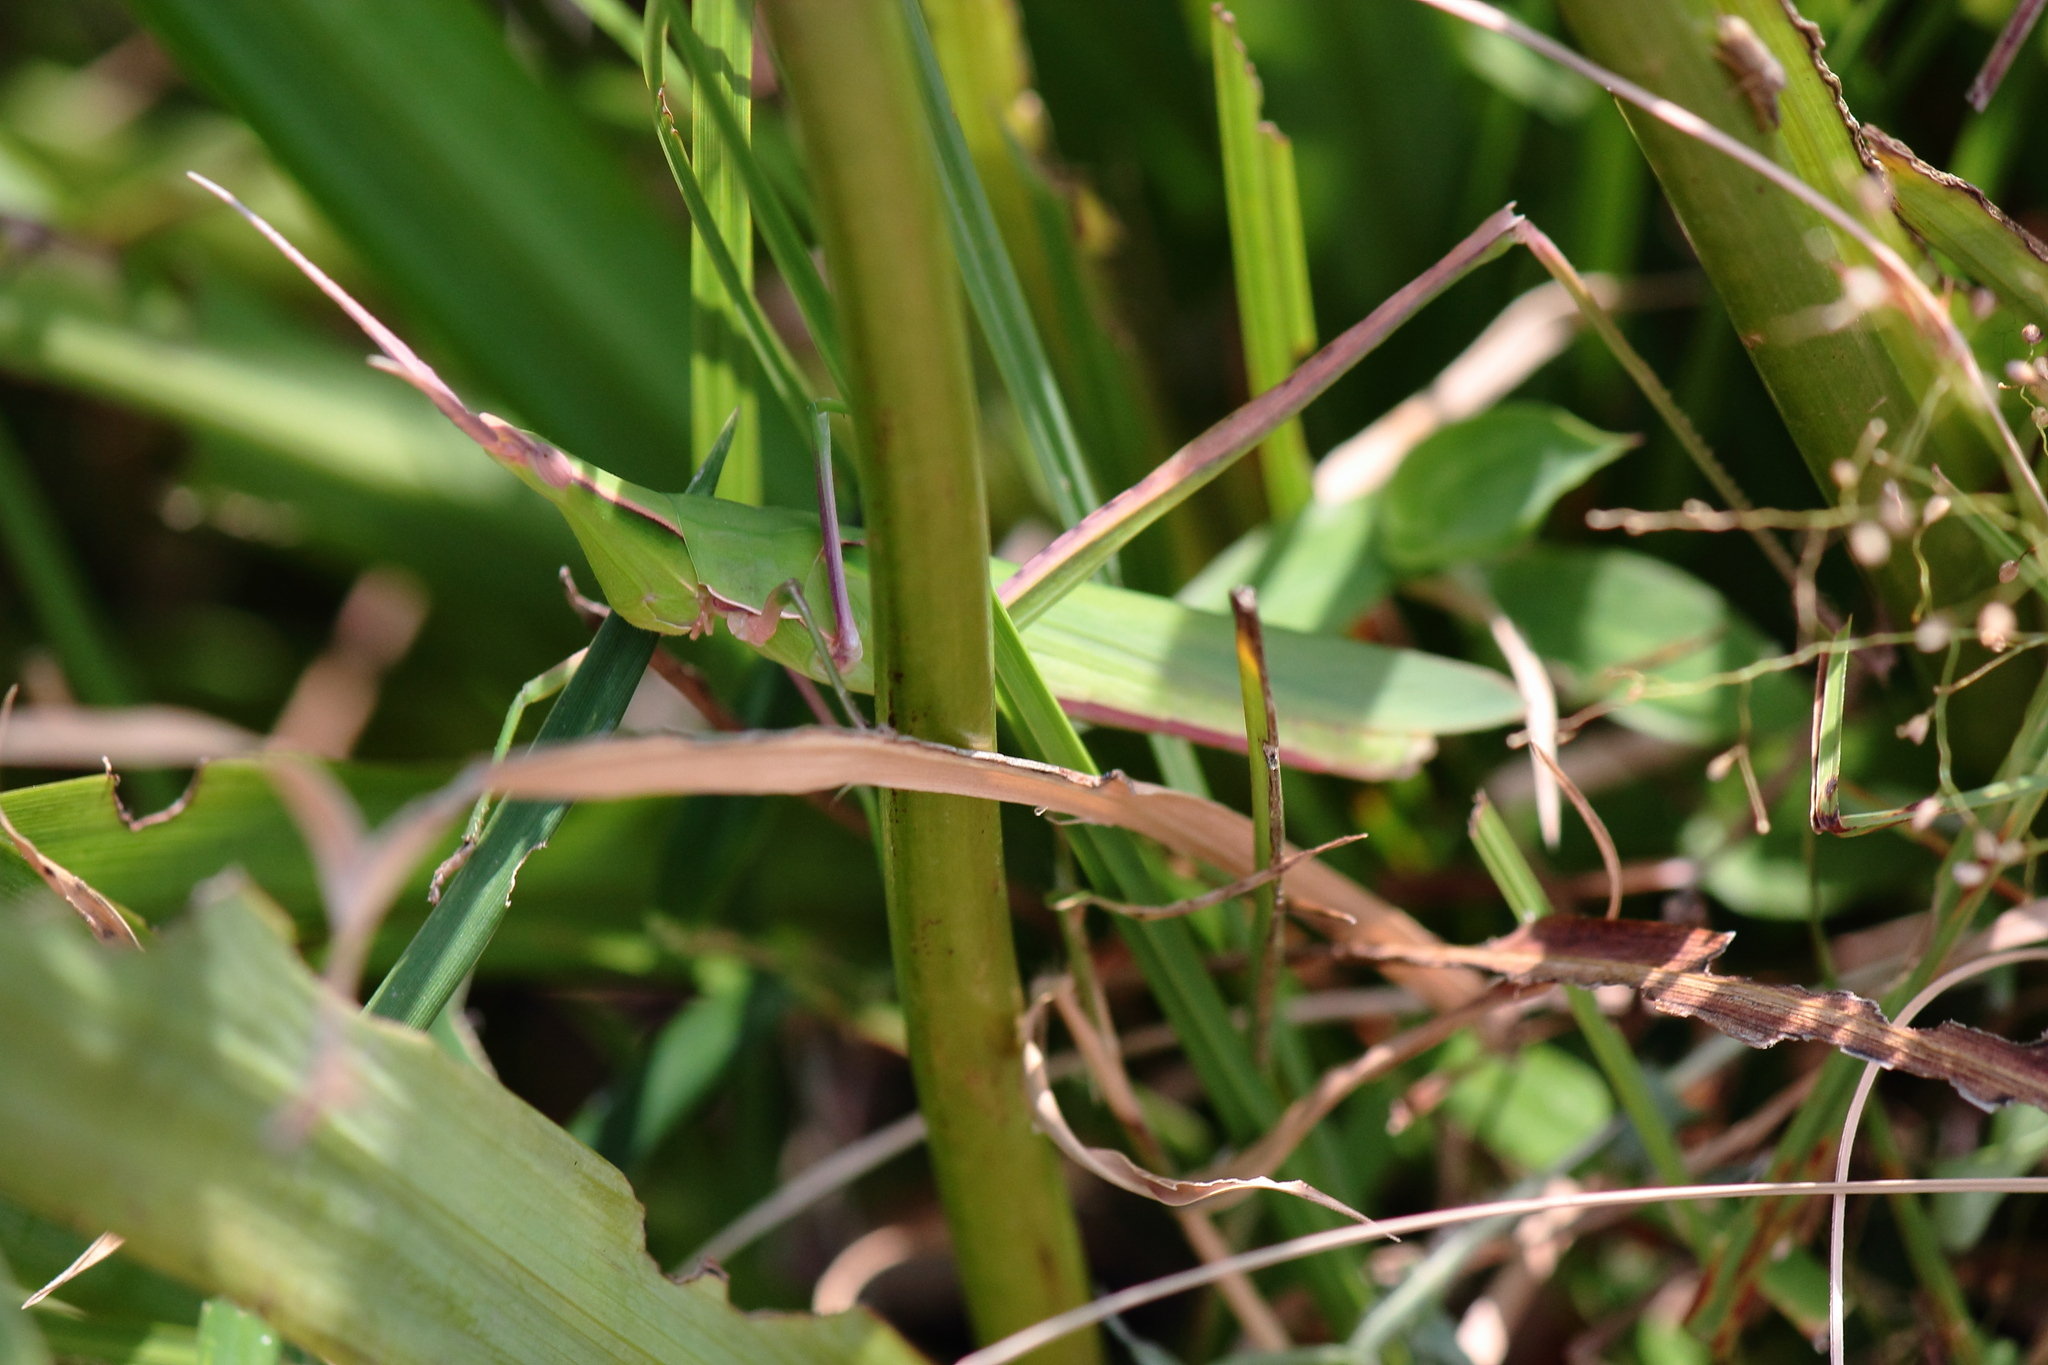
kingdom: Animalia
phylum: Arthropoda
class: Insecta
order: Orthoptera
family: Acrididae
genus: Acrida
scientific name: Acrida cinerea
